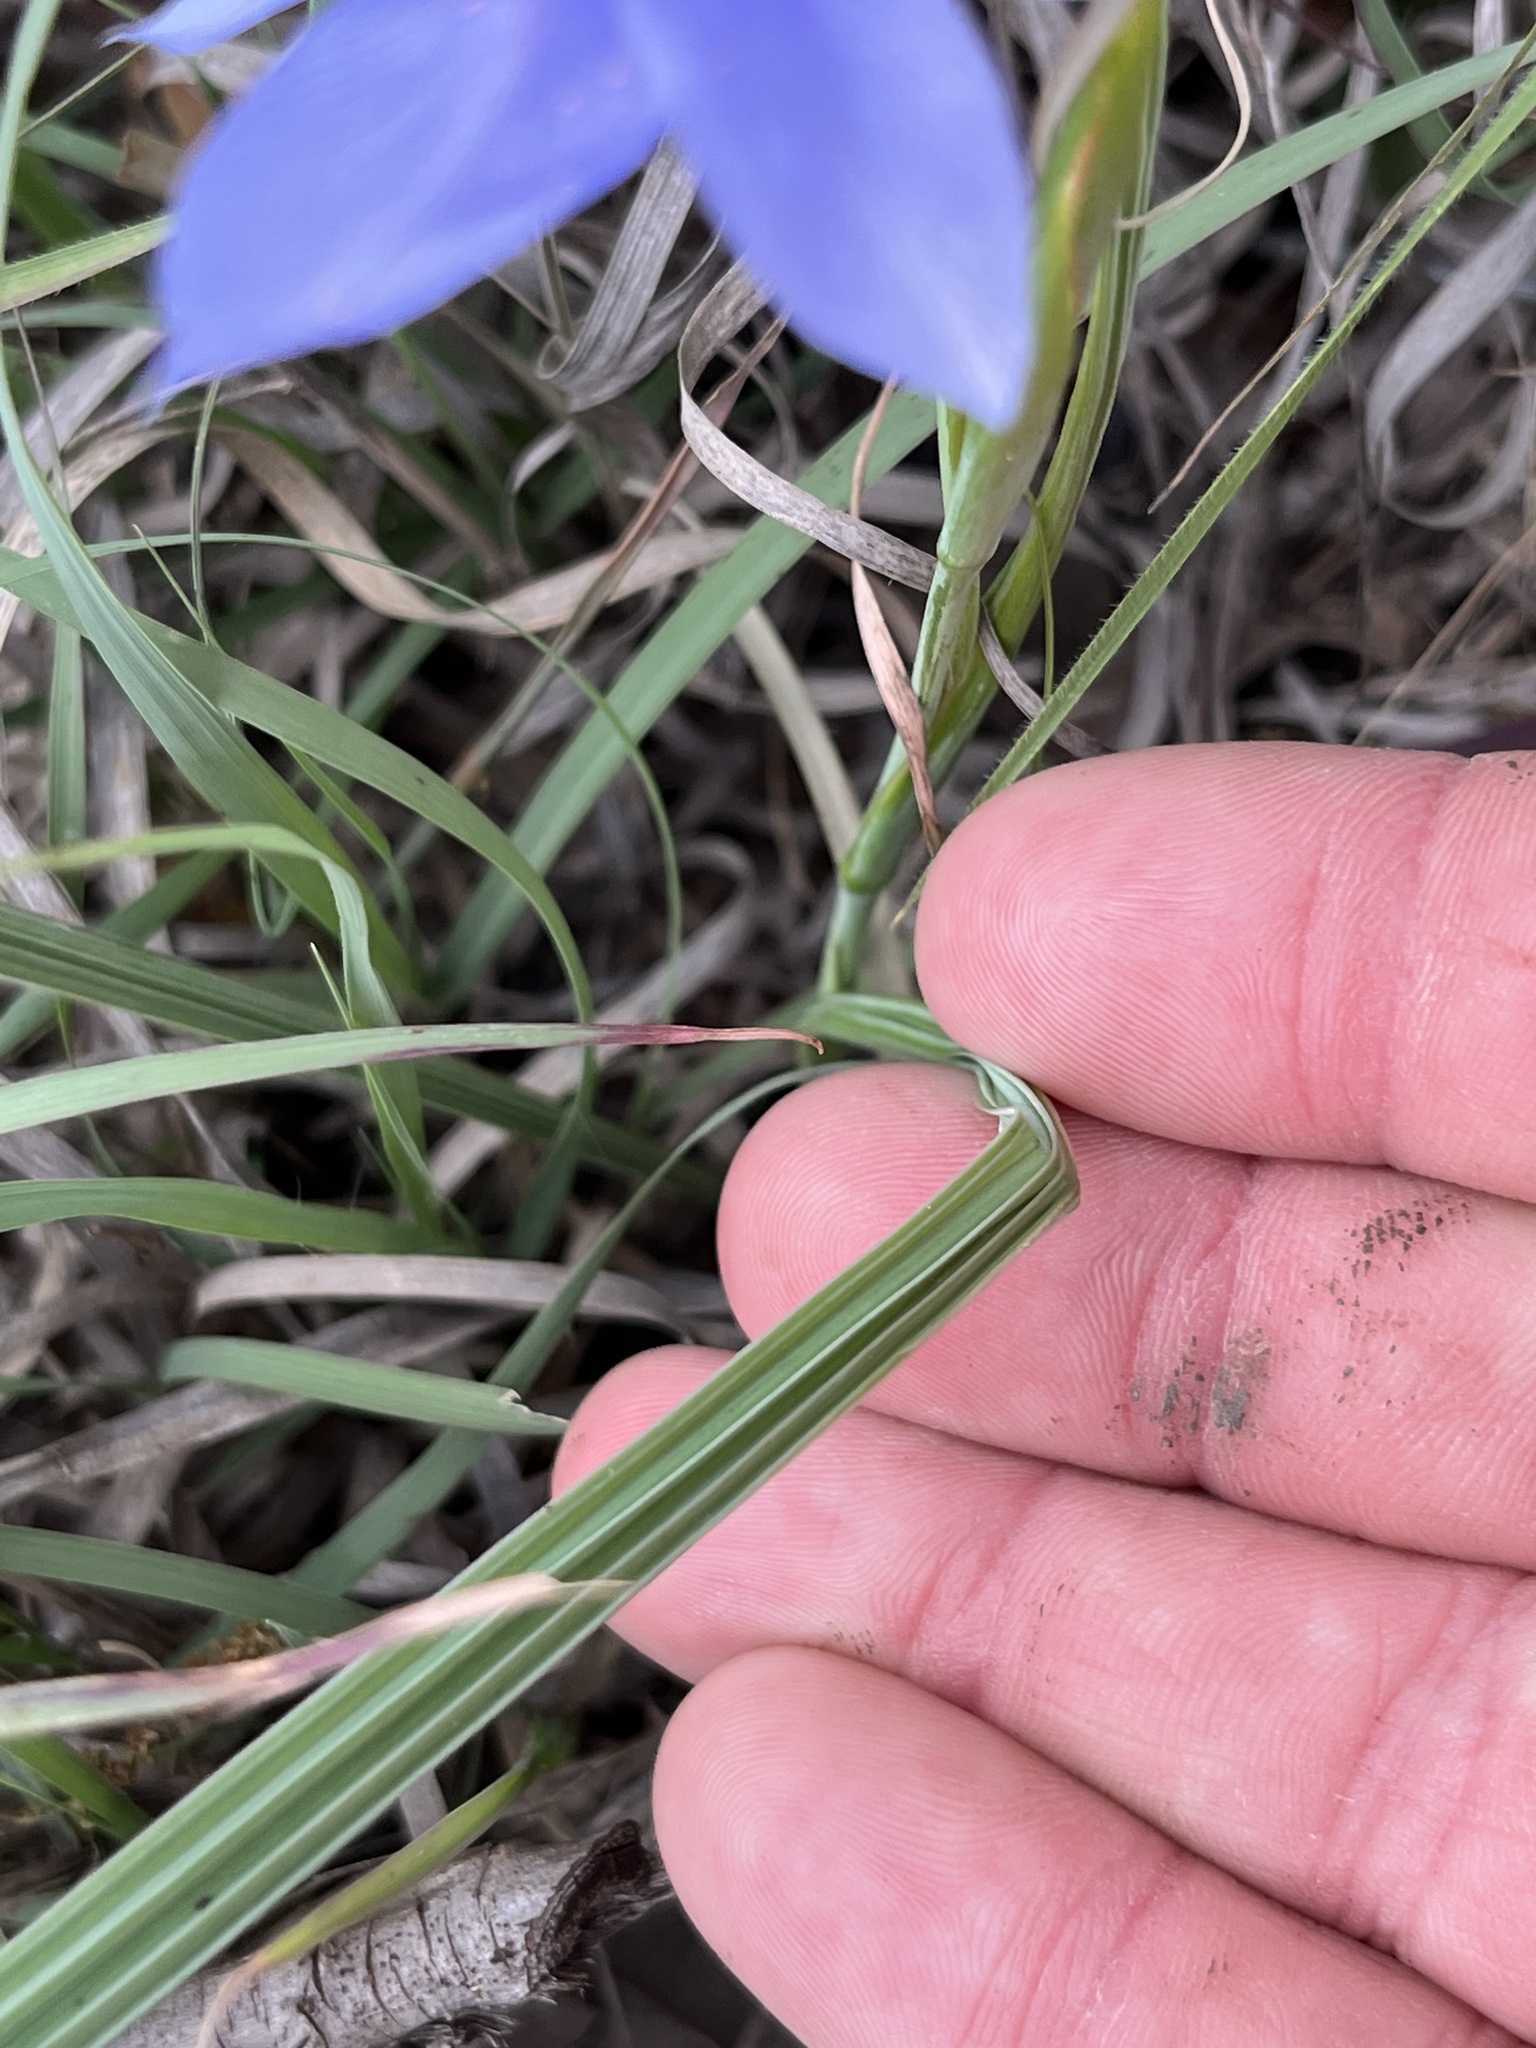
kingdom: Plantae
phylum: Tracheophyta
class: Liliopsida
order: Asparagales
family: Iridaceae
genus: Nemastylis
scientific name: Nemastylis geminiflora
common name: Prairie celestial
